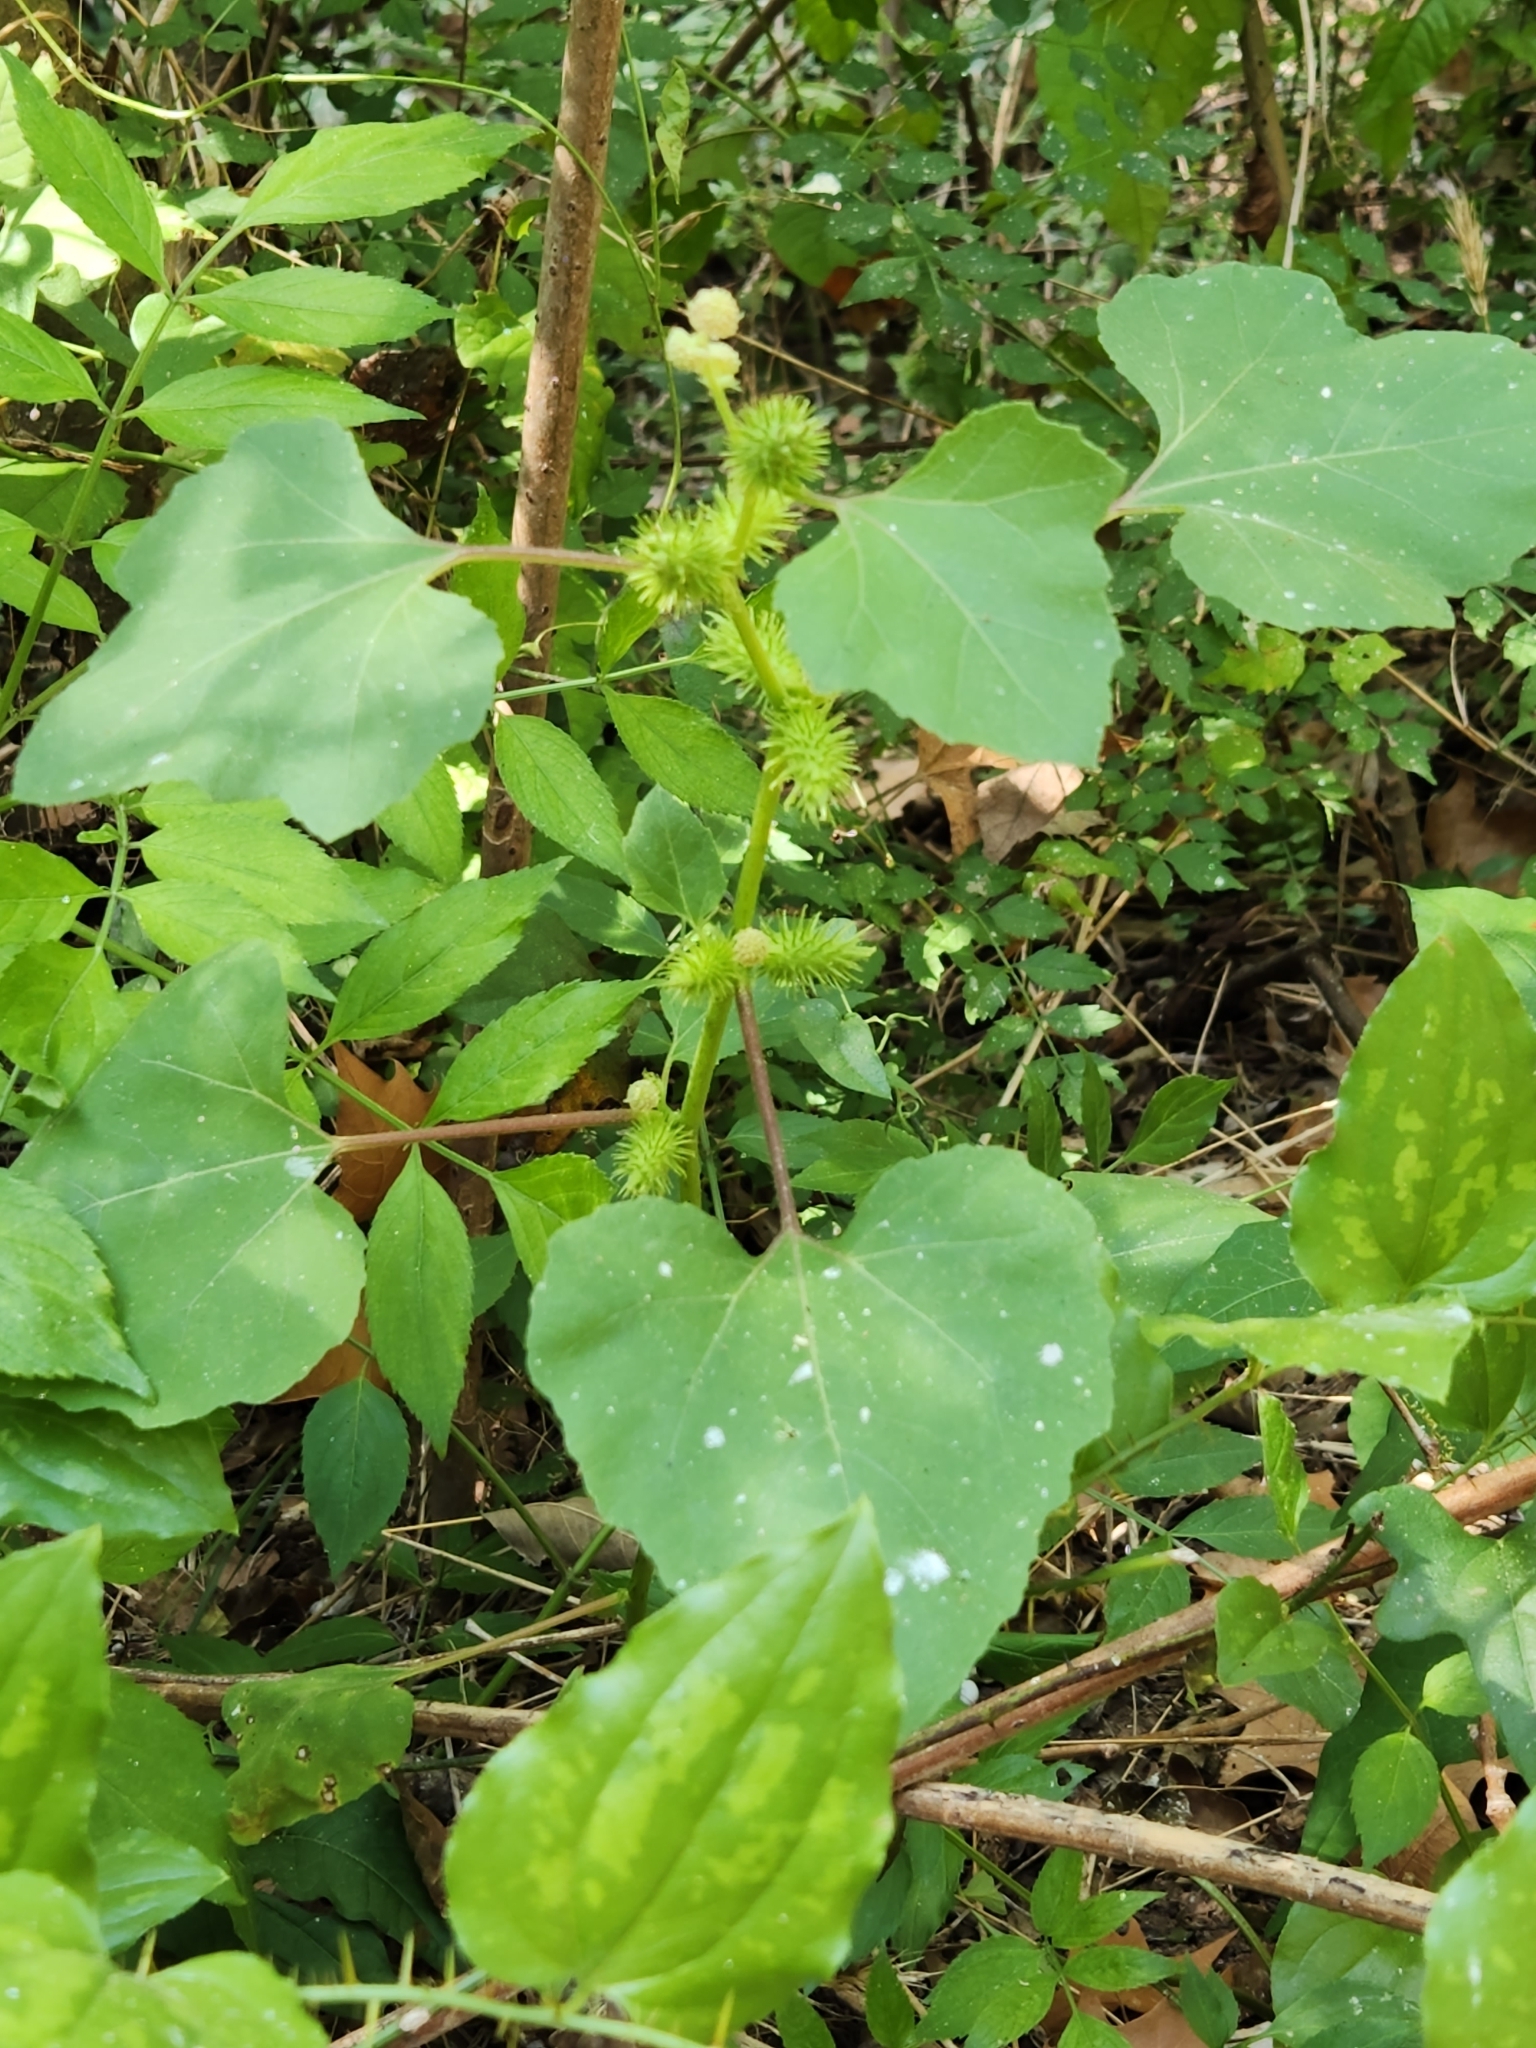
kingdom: Plantae
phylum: Tracheophyta
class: Magnoliopsida
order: Asterales
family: Asteraceae
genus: Xanthium
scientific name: Xanthium strumarium
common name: Rough cocklebur
